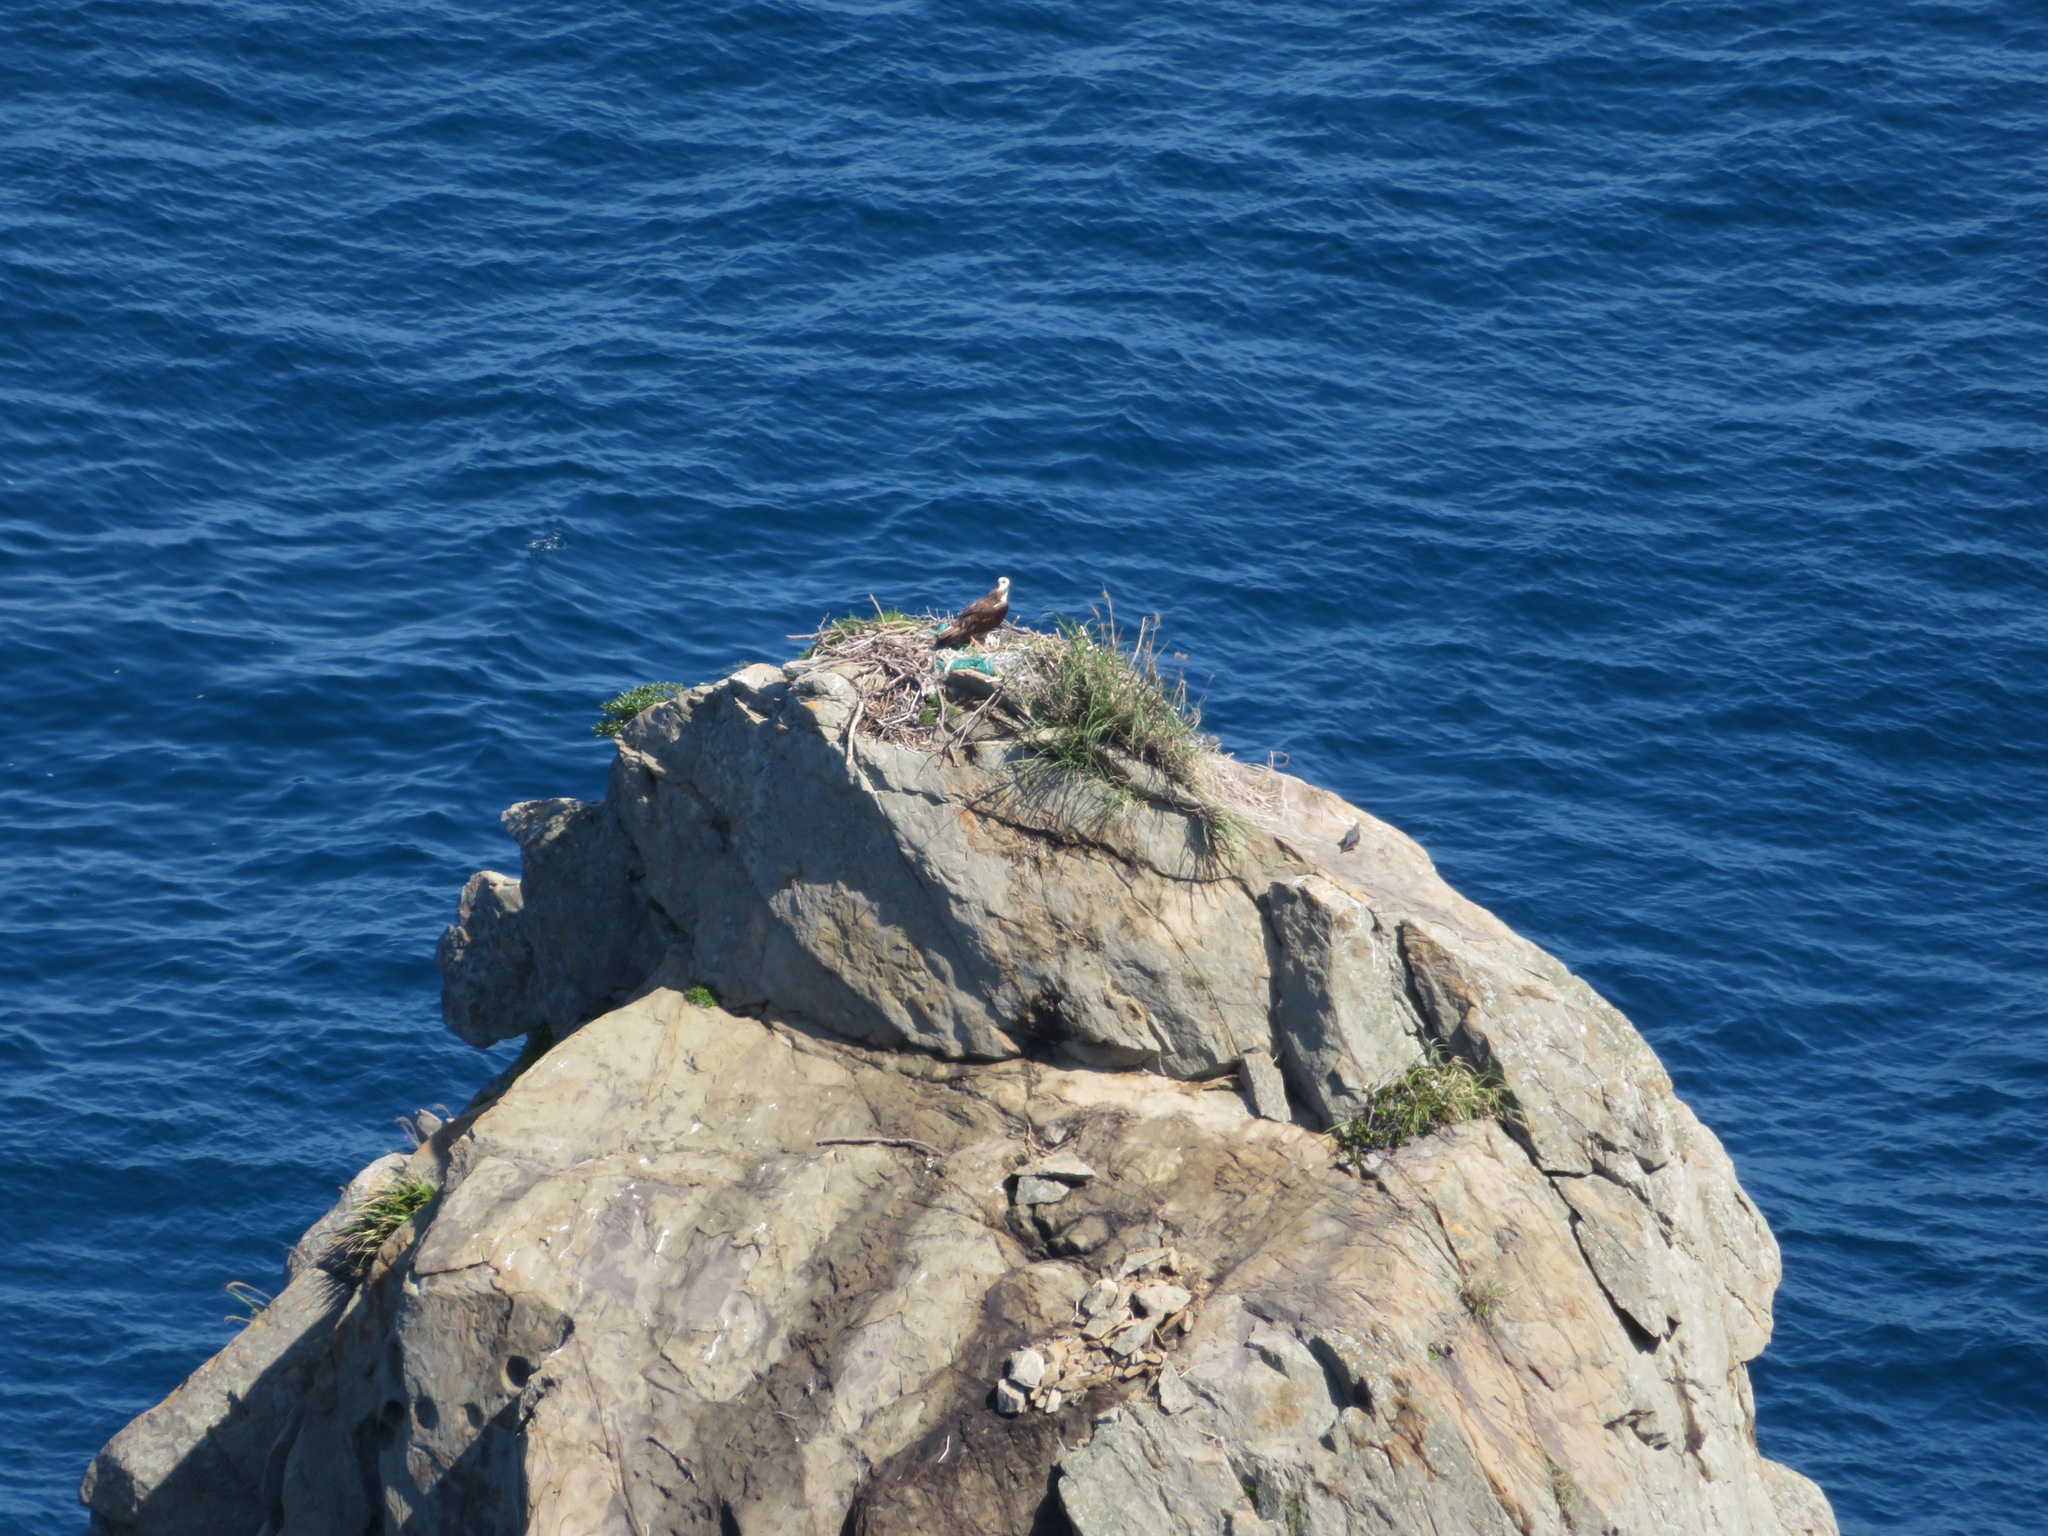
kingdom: Animalia
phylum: Chordata
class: Aves
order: Accipitriformes
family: Pandionidae
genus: Pandion
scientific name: Pandion haliaetus
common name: Osprey
